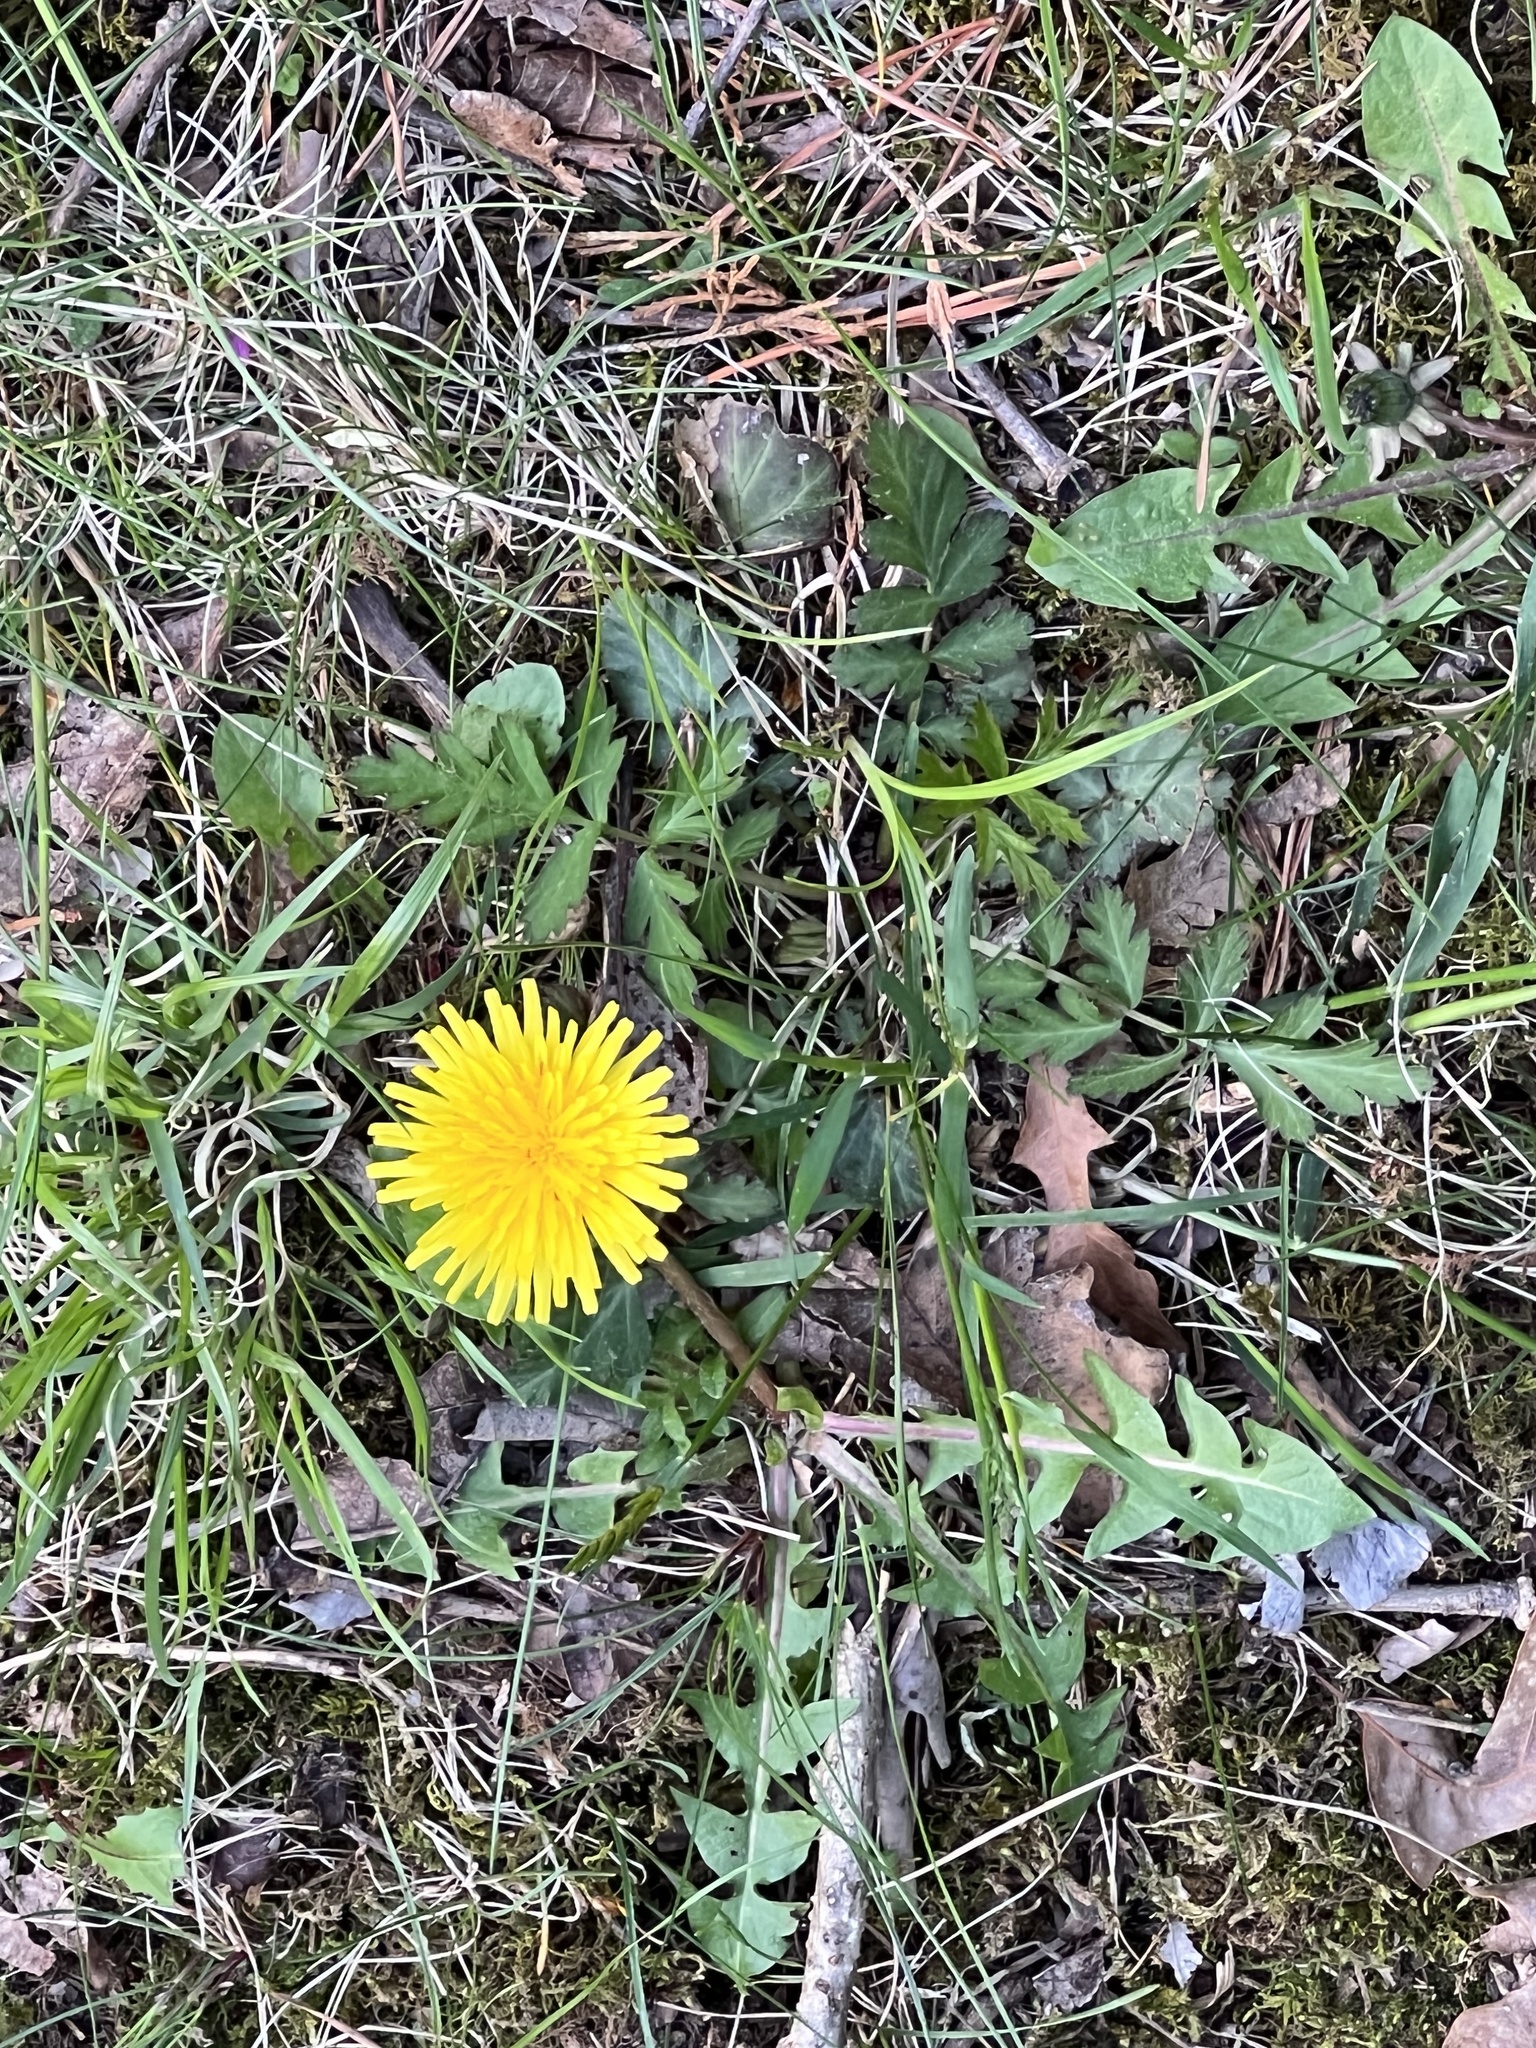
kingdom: Plantae
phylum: Tracheophyta
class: Magnoliopsida
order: Asterales
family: Asteraceae
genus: Taraxacum
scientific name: Taraxacum officinale
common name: Common dandelion
